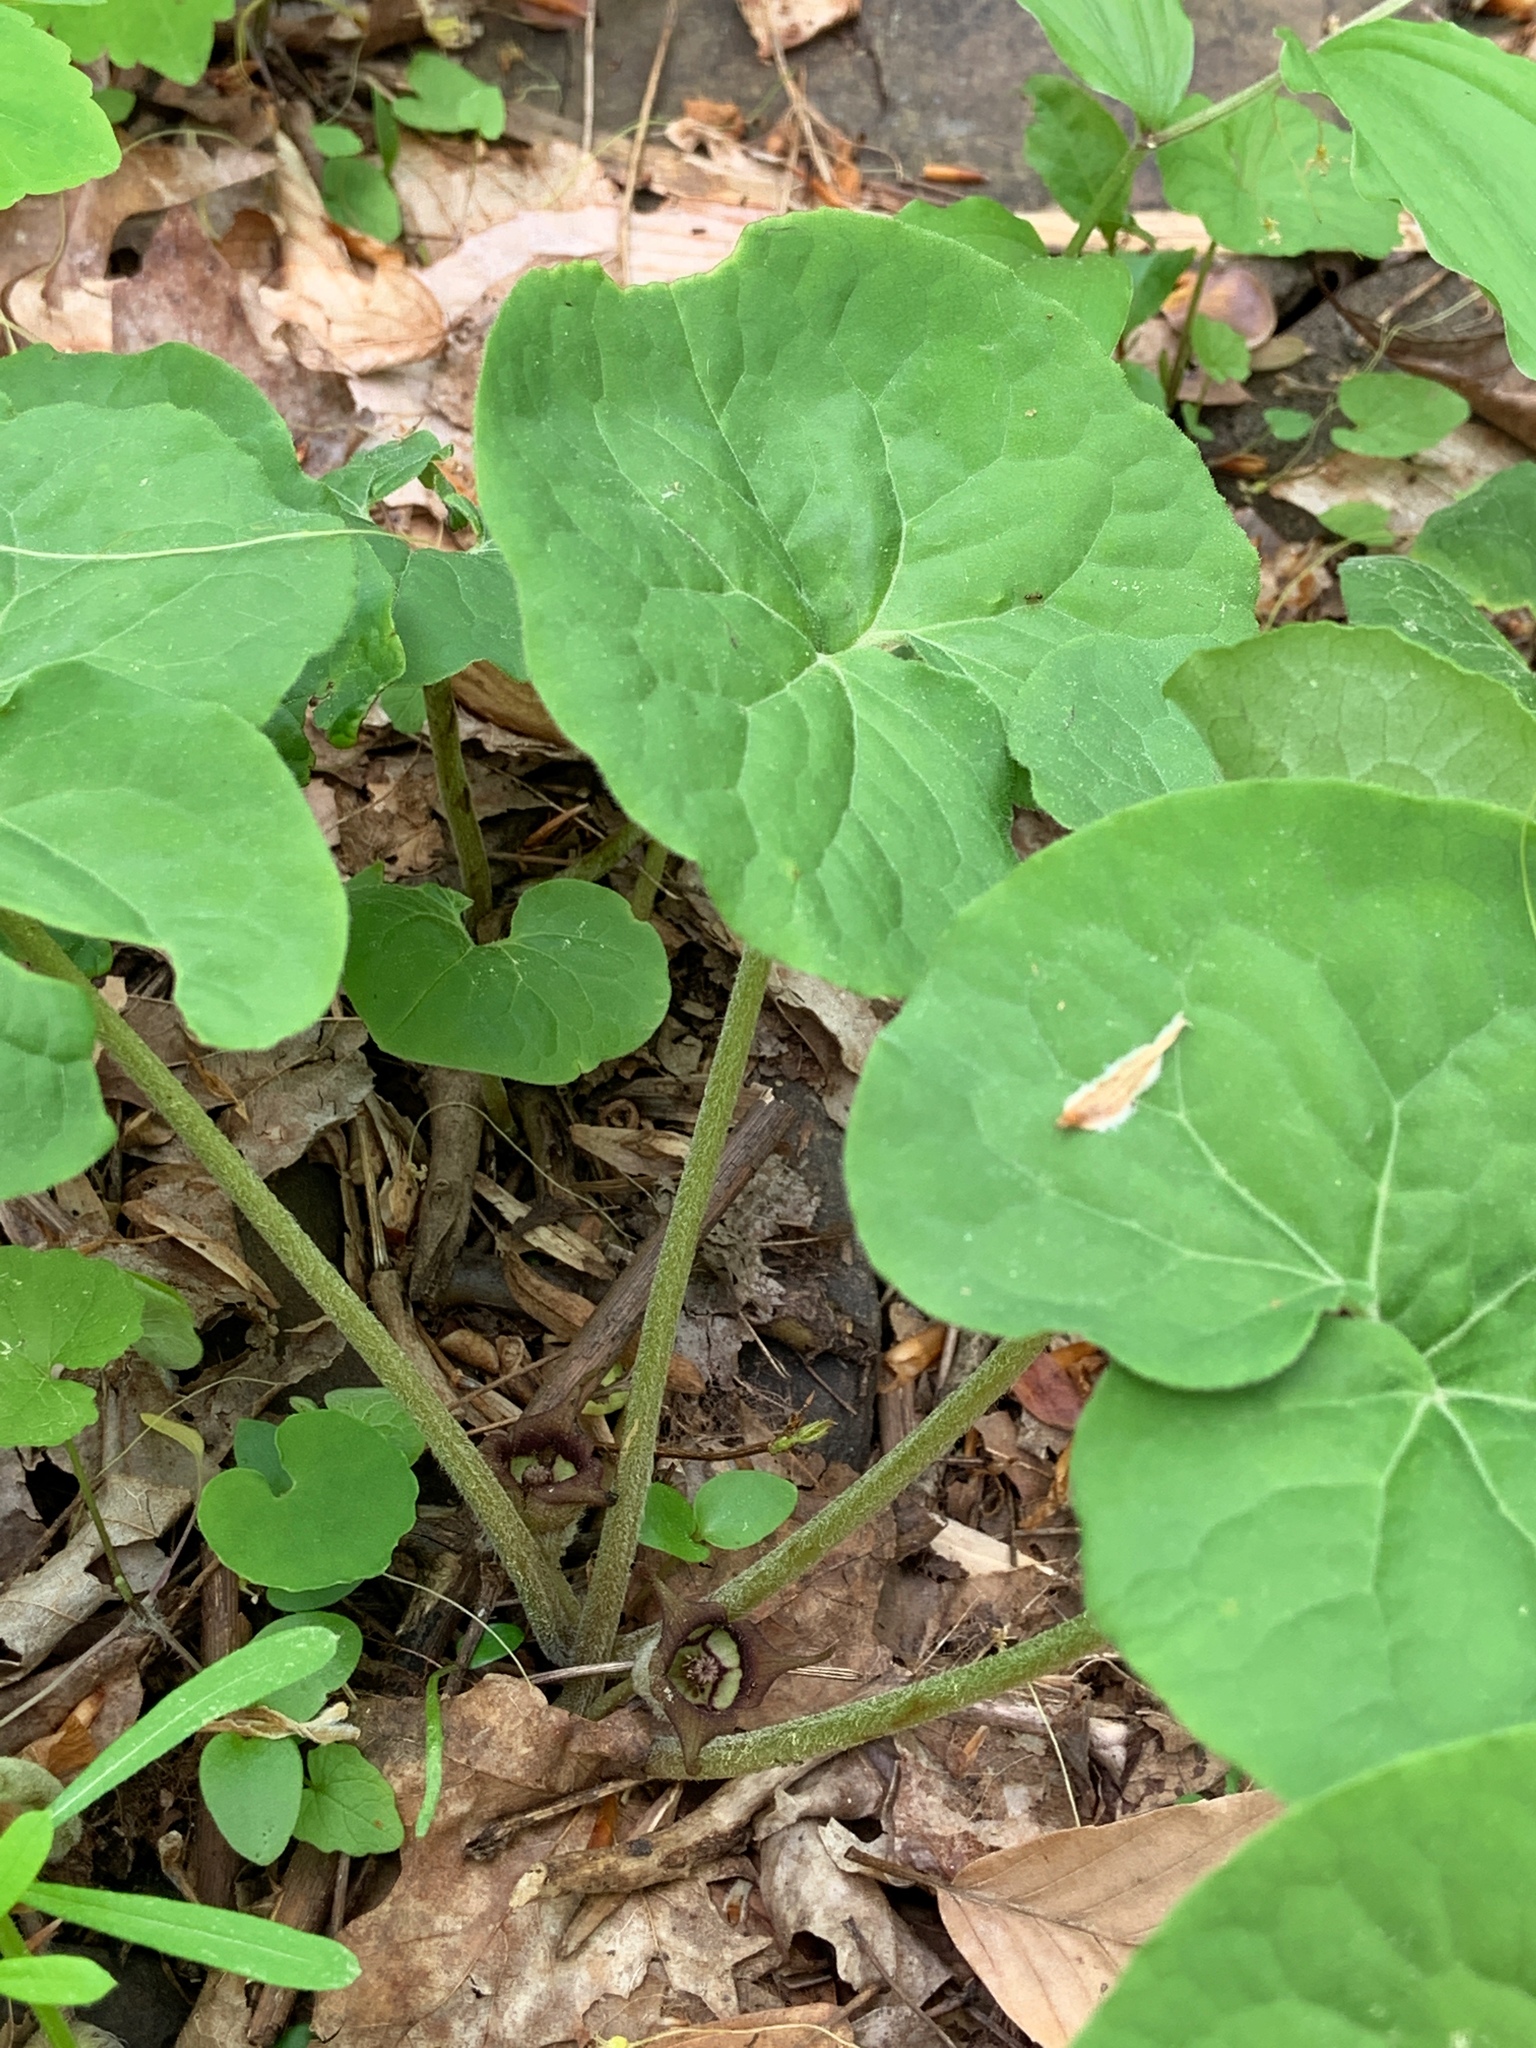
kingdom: Plantae
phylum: Tracheophyta
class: Magnoliopsida
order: Piperales
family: Aristolochiaceae
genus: Asarum
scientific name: Asarum canadense
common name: Wild ginger
